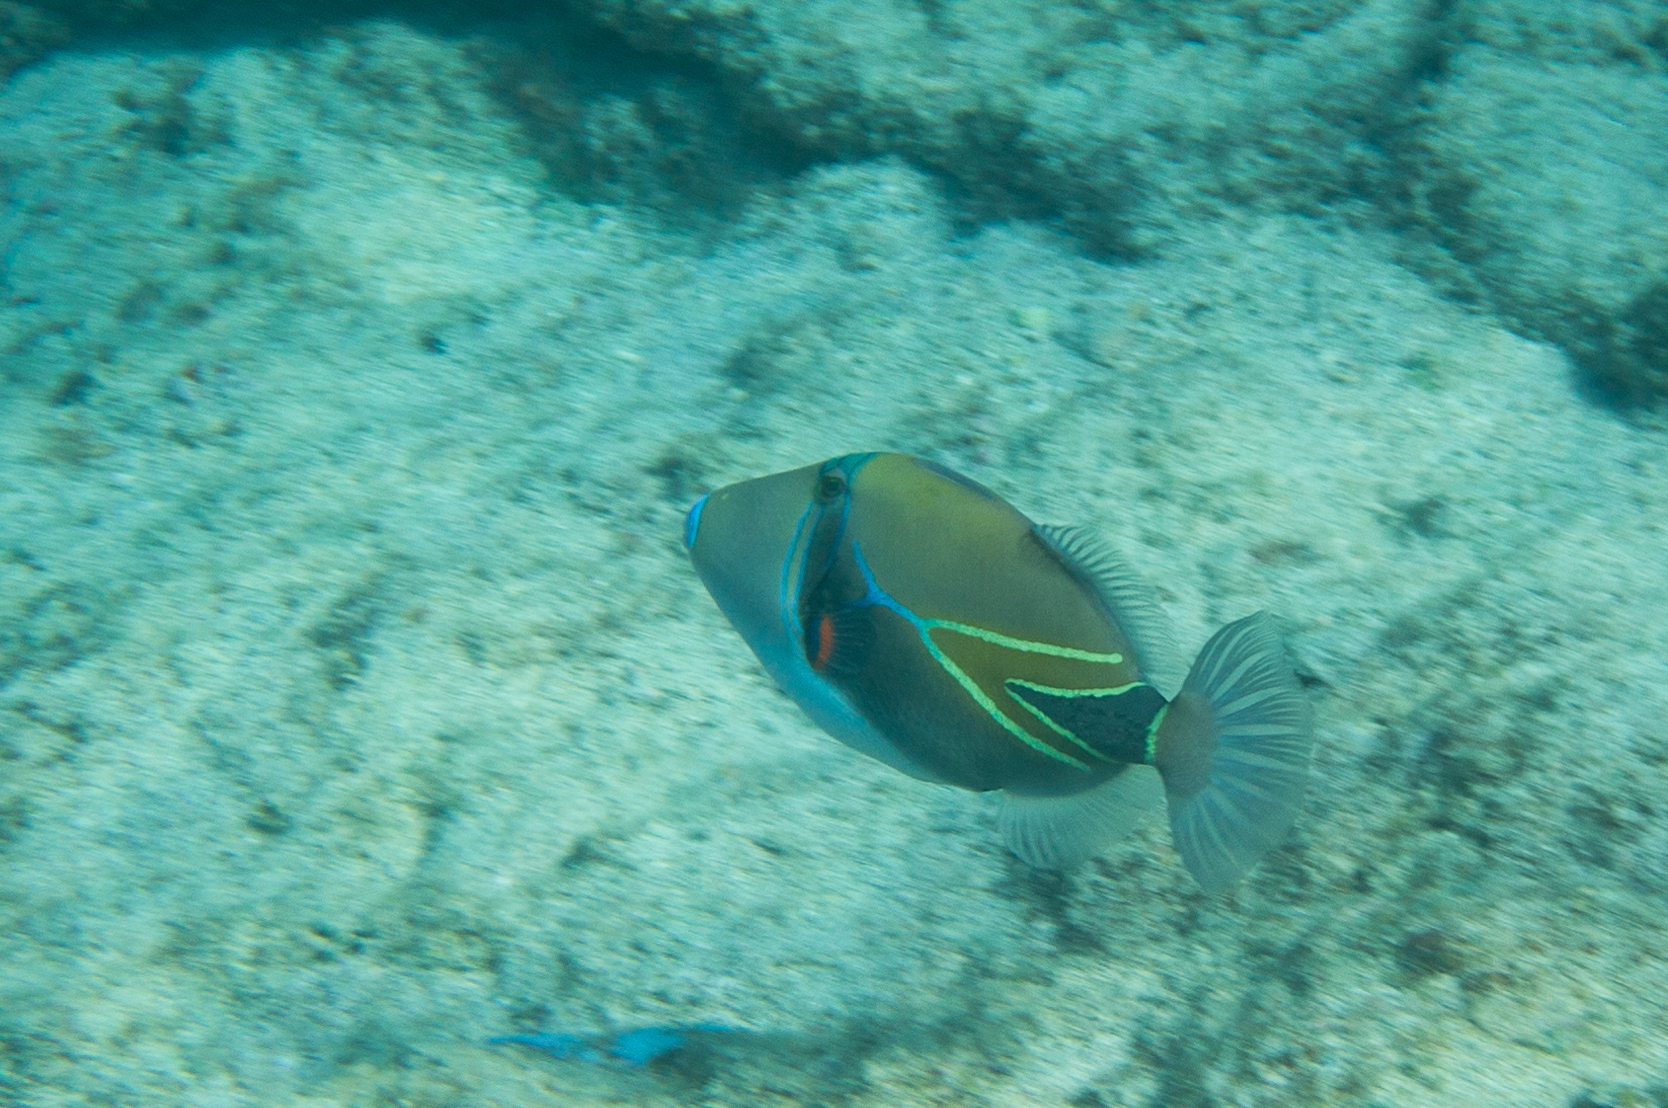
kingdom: Animalia
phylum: Chordata
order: Tetraodontiformes
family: Balistidae
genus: Rhinecanthus
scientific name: Rhinecanthus rectangulus
